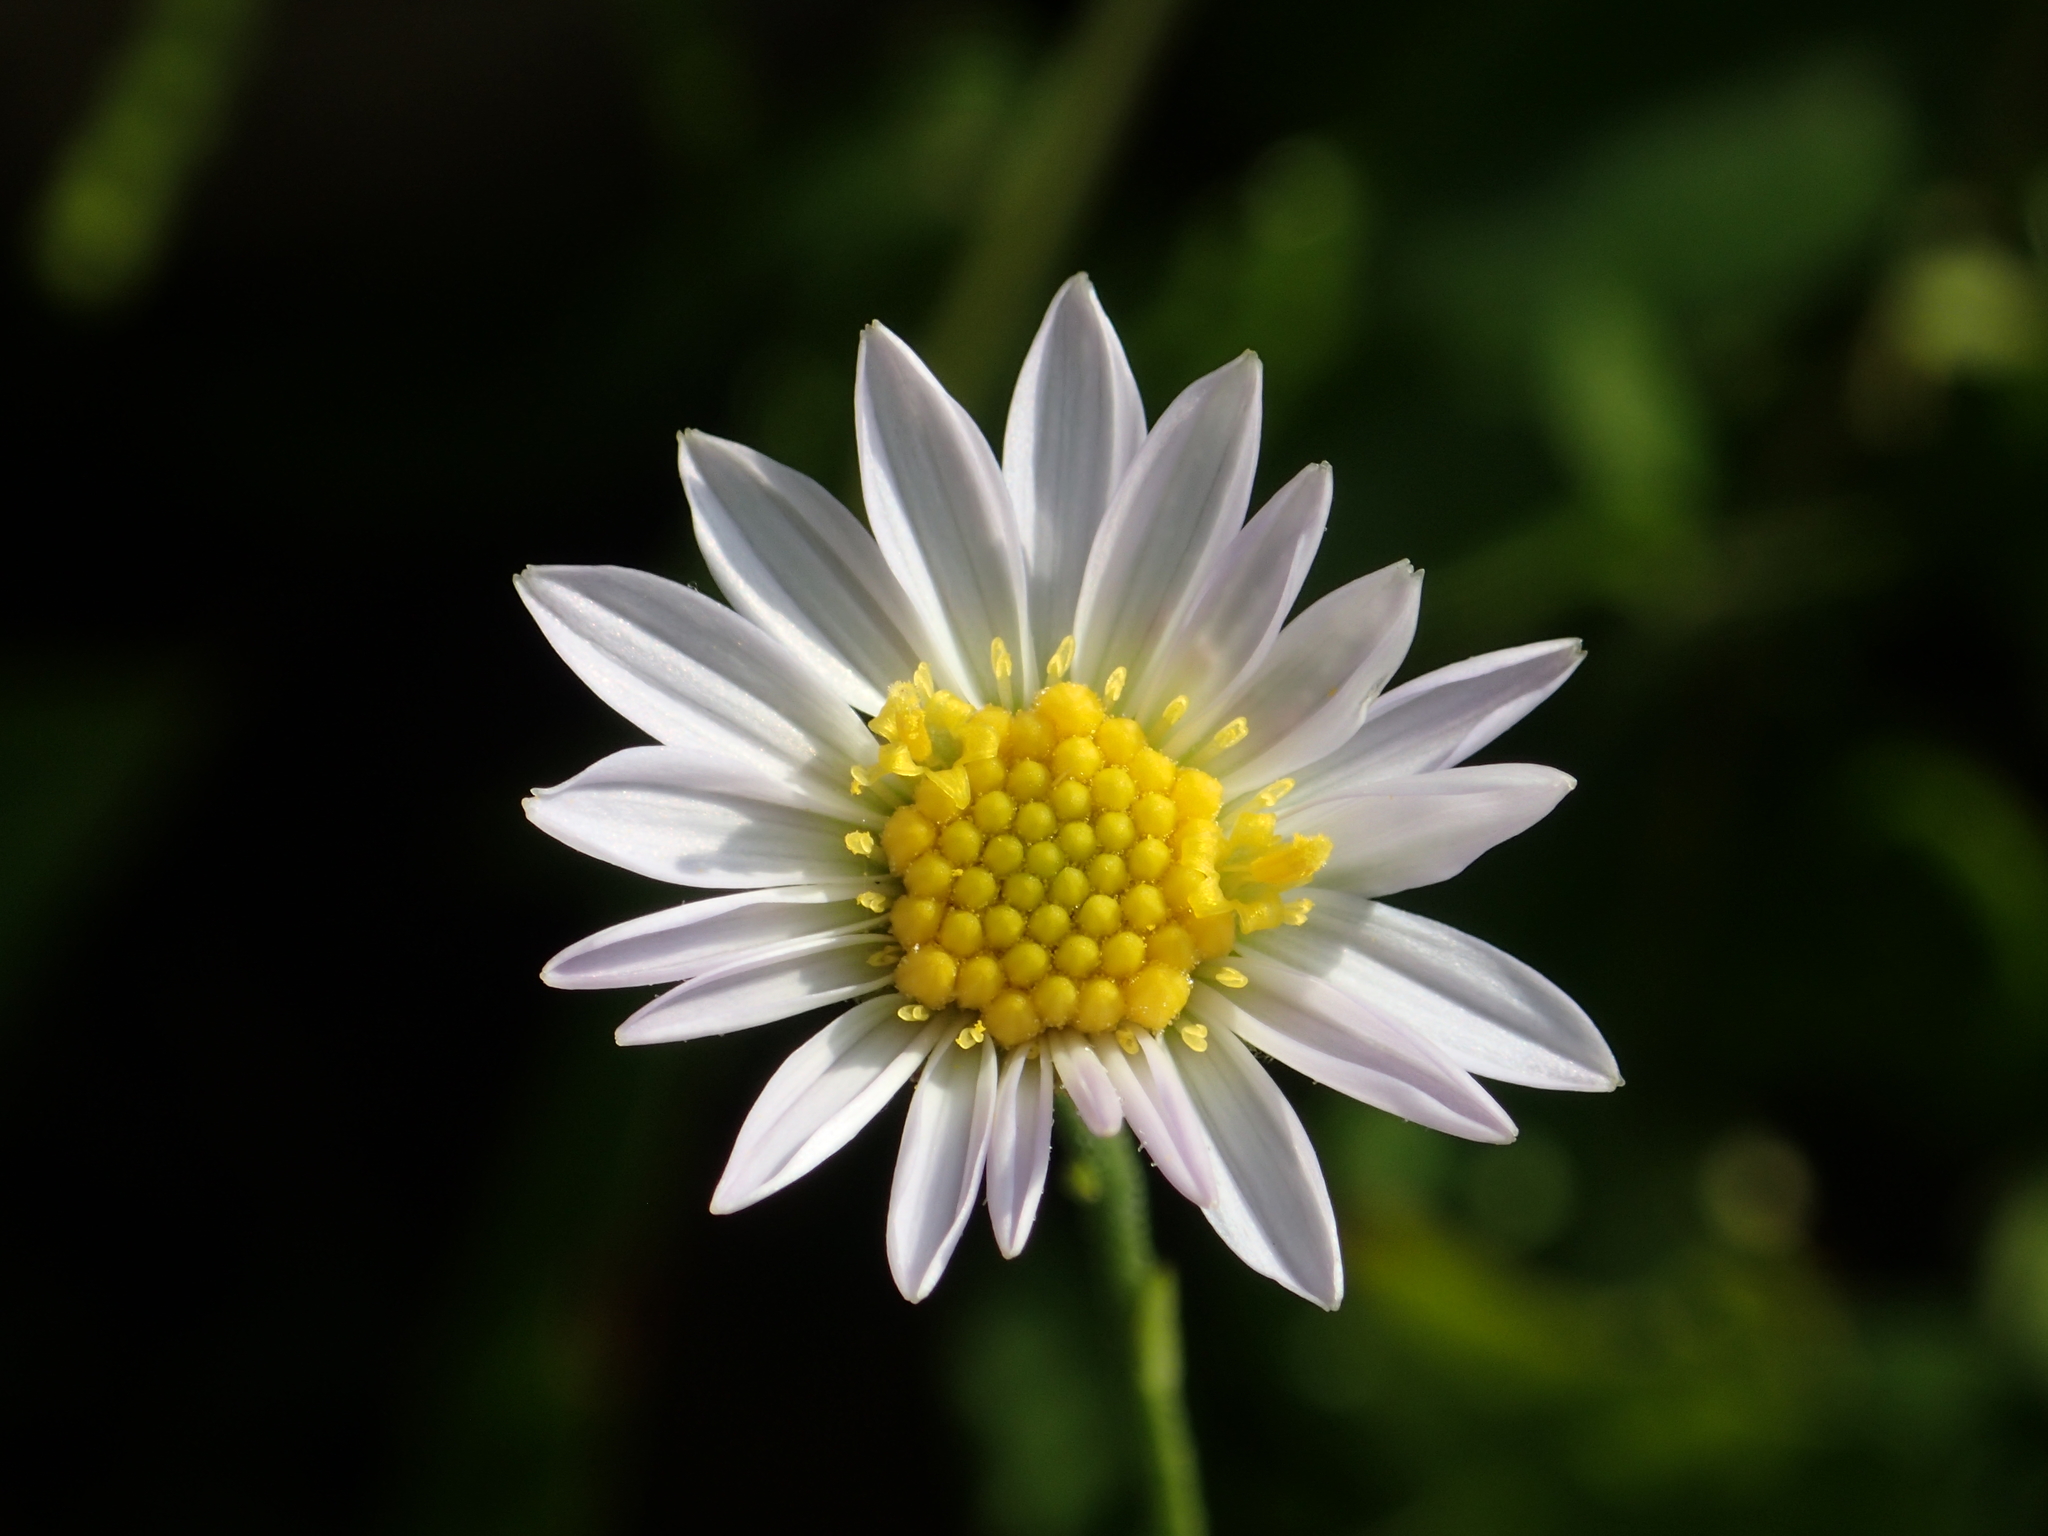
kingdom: Plantae
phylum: Tracheophyta
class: Magnoliopsida
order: Asterales
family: Asteraceae
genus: Aster
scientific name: Aster shimadae
